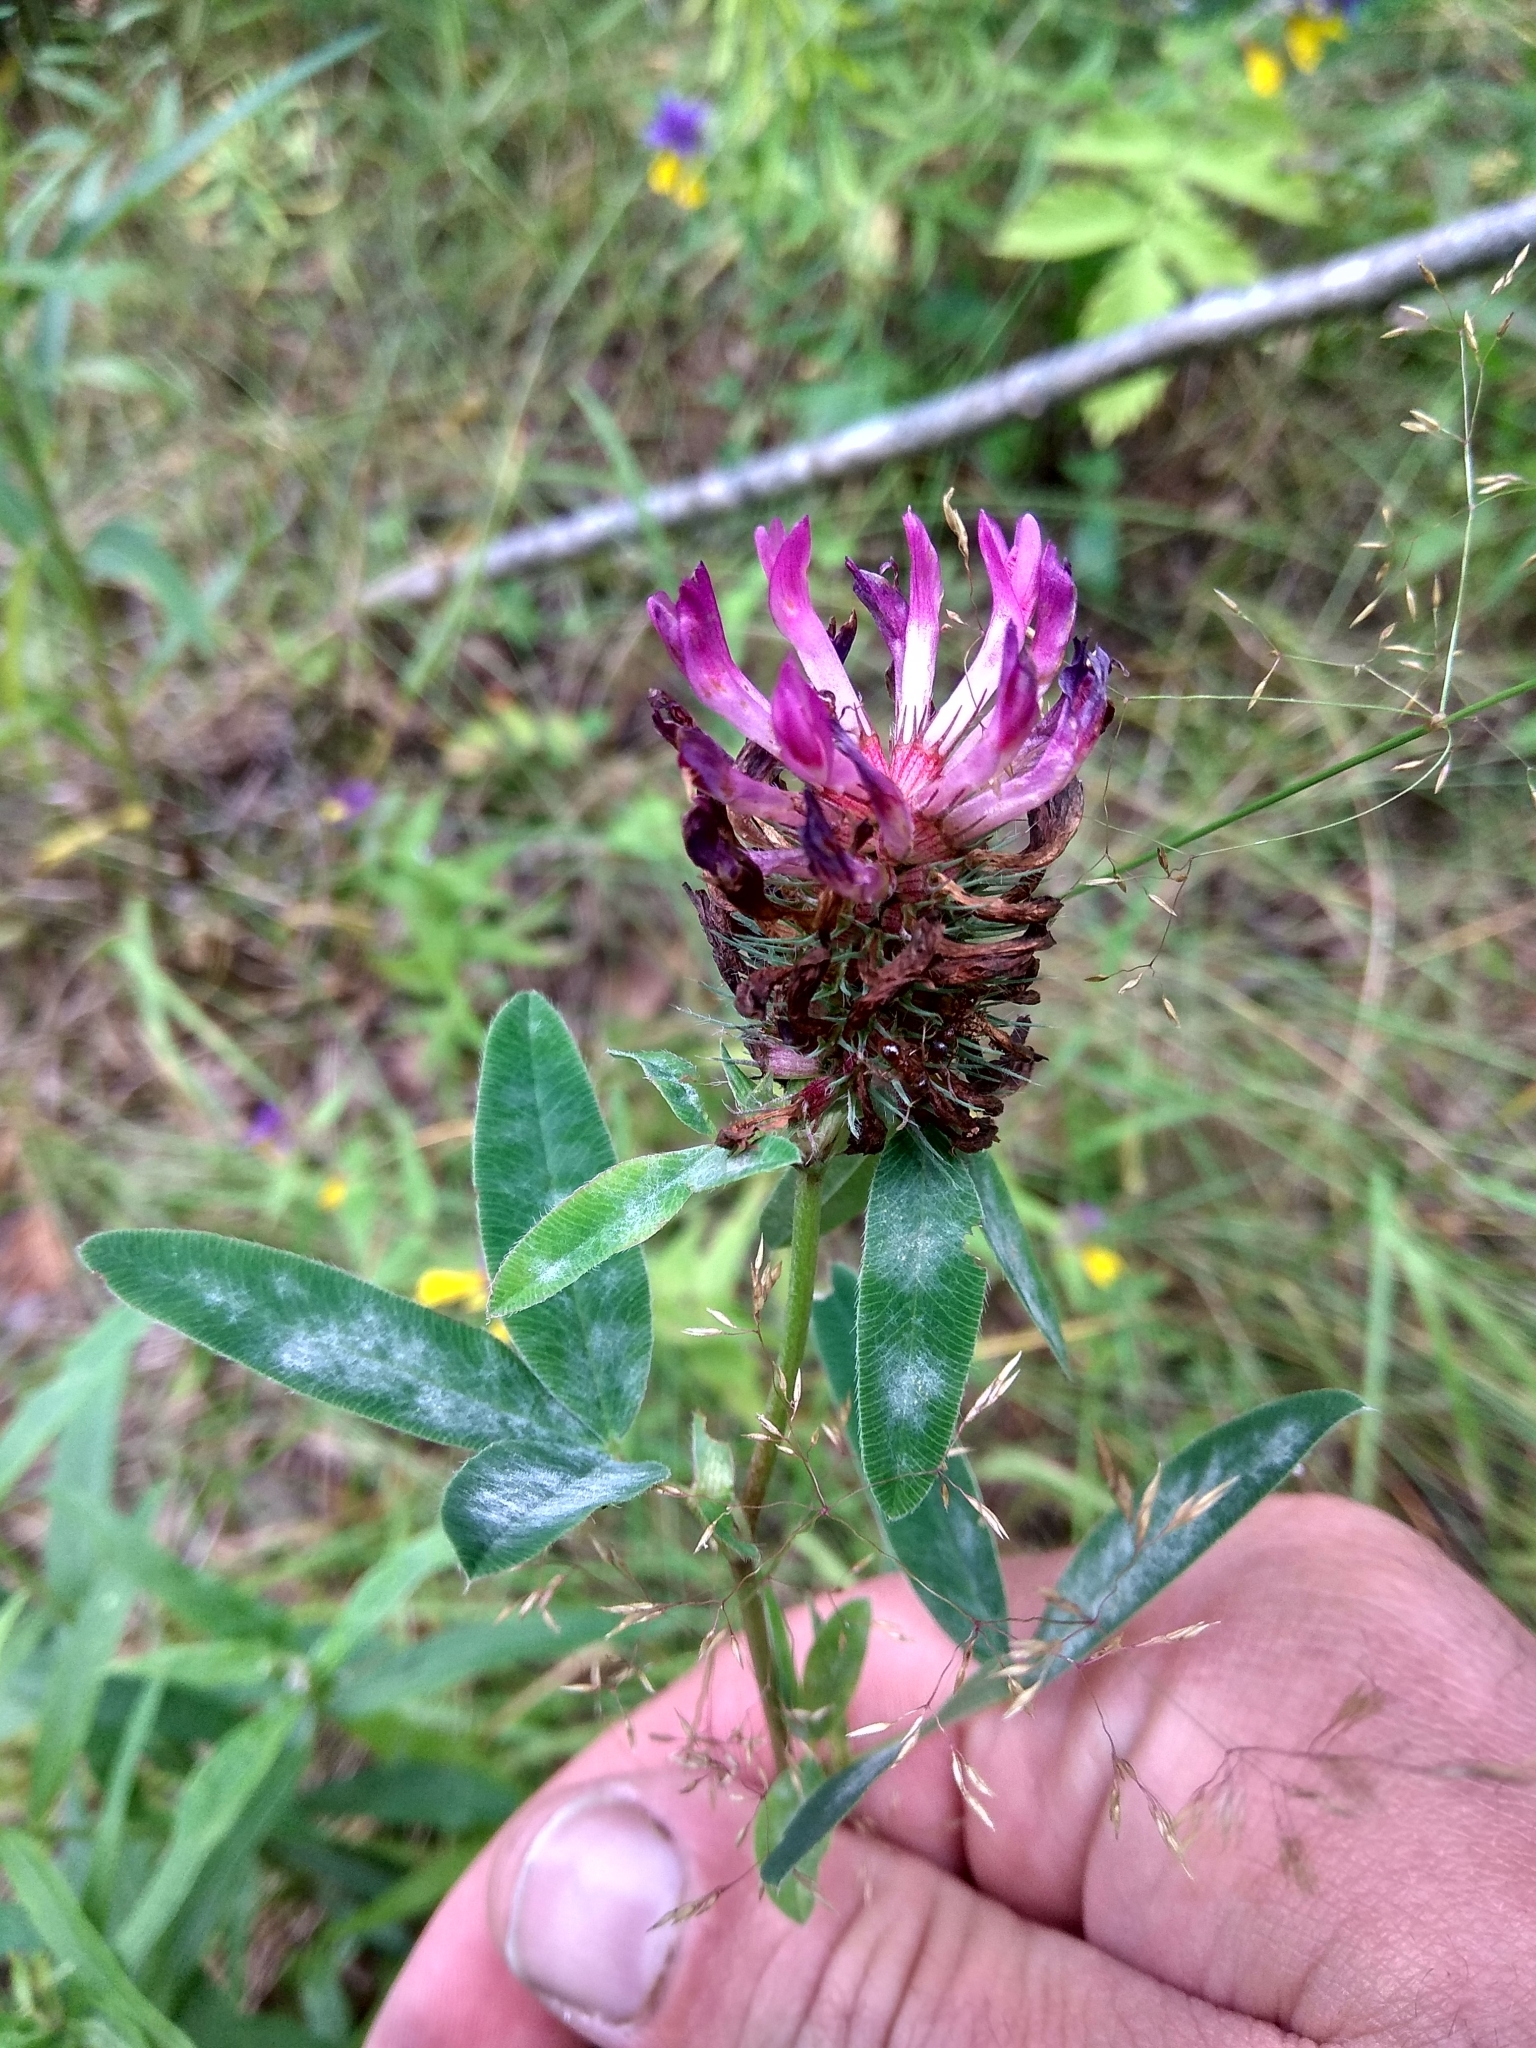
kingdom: Plantae
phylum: Tracheophyta
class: Magnoliopsida
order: Fabales
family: Fabaceae
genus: Trifolium
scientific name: Trifolium medium
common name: Zigzag clover
